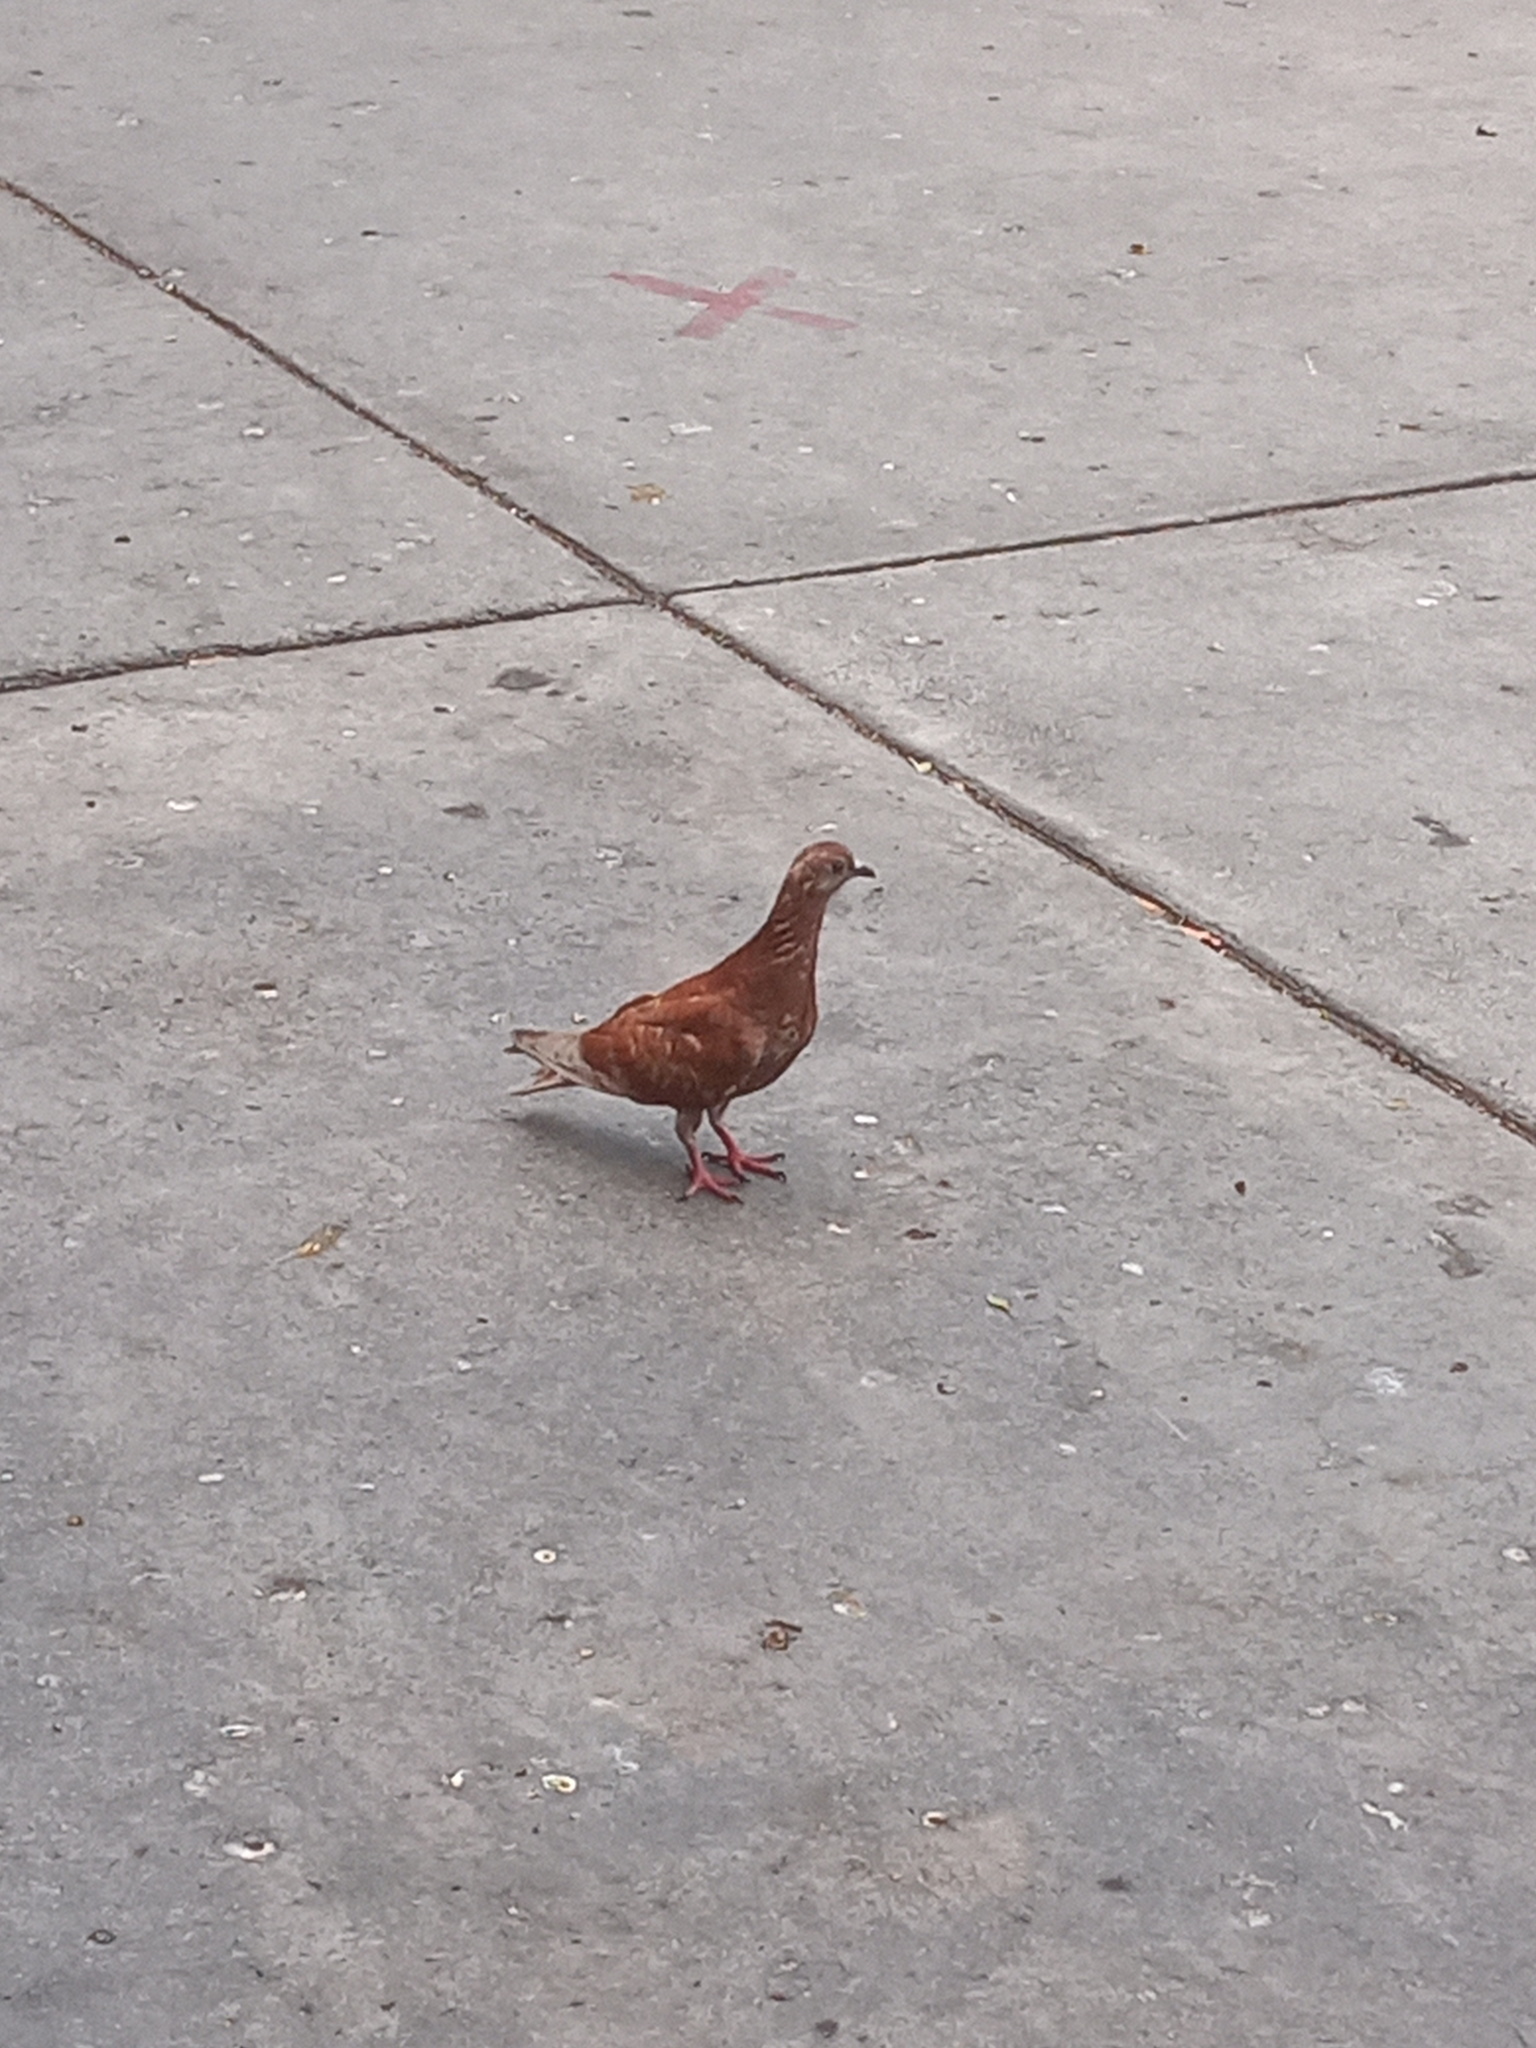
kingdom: Animalia
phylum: Chordata
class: Aves
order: Columbiformes
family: Columbidae
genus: Columba
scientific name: Columba livia
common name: Rock pigeon
